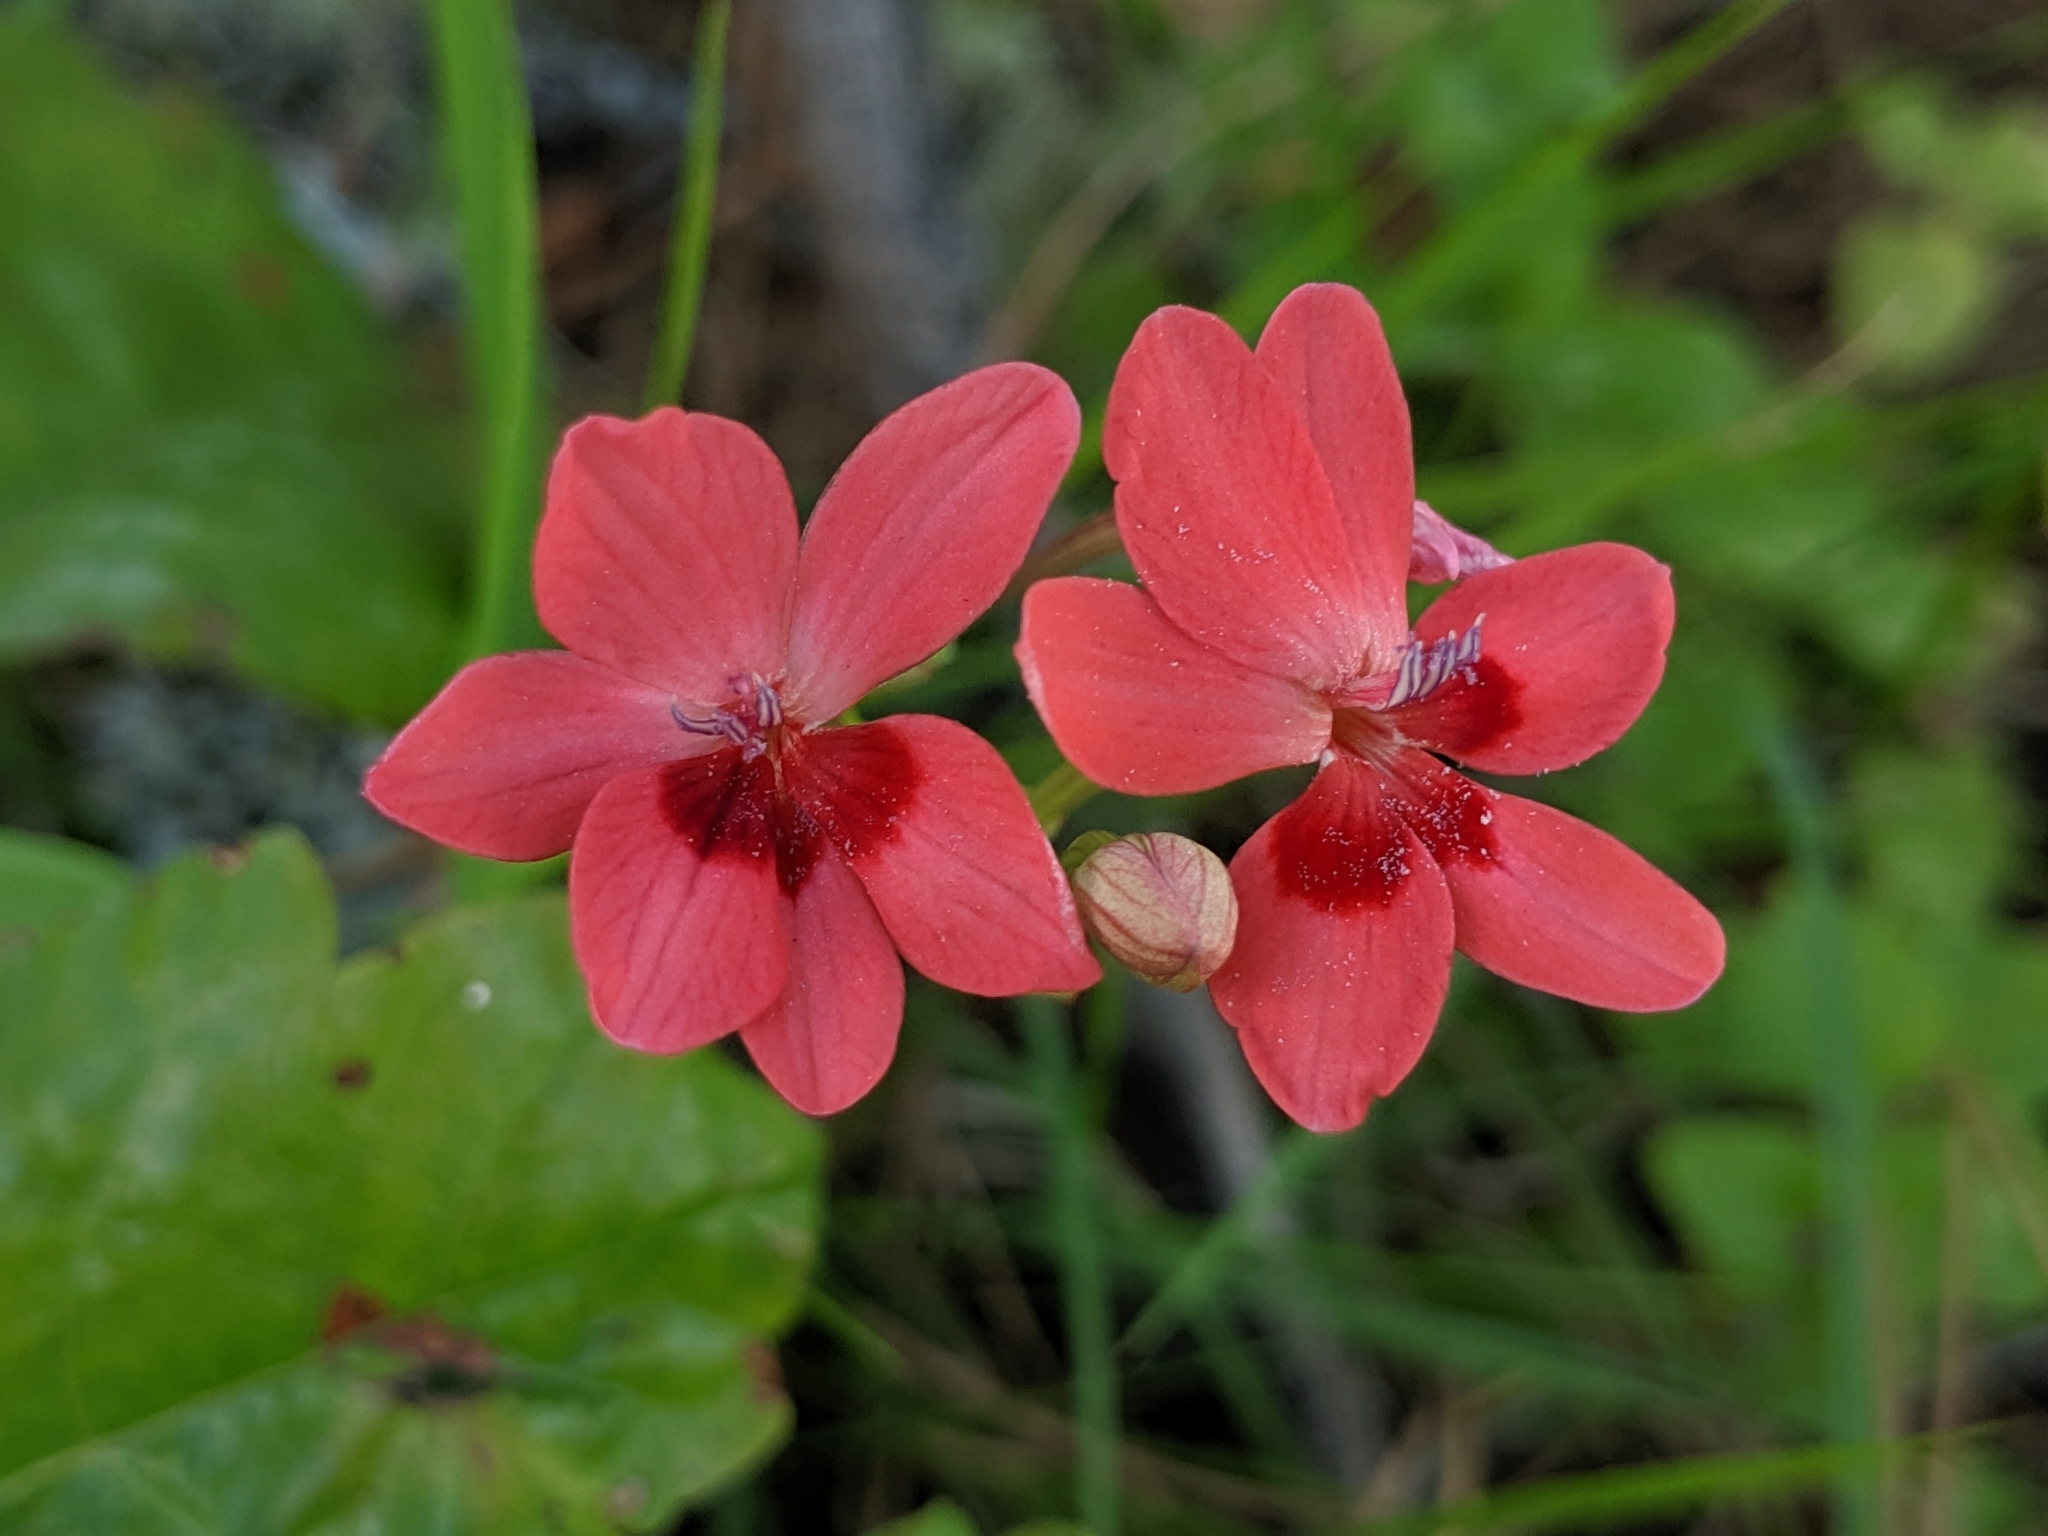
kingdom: Plantae
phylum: Tracheophyta
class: Liliopsida
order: Asparagales
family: Iridaceae
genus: Freesia
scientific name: Freesia laxa
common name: False freesia
